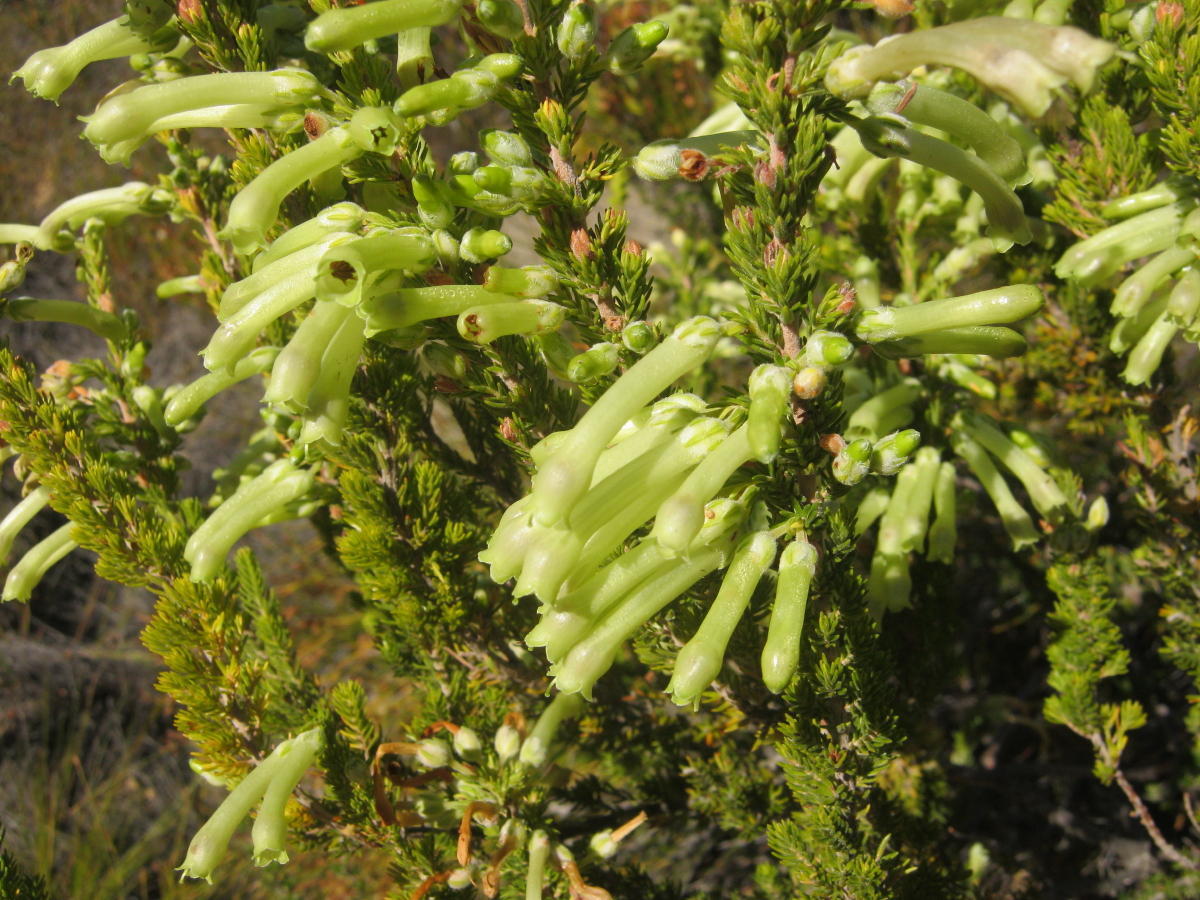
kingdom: Plantae
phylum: Tracheophyta
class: Magnoliopsida
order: Ericales
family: Ericaceae
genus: Erica
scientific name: Erica discolor
